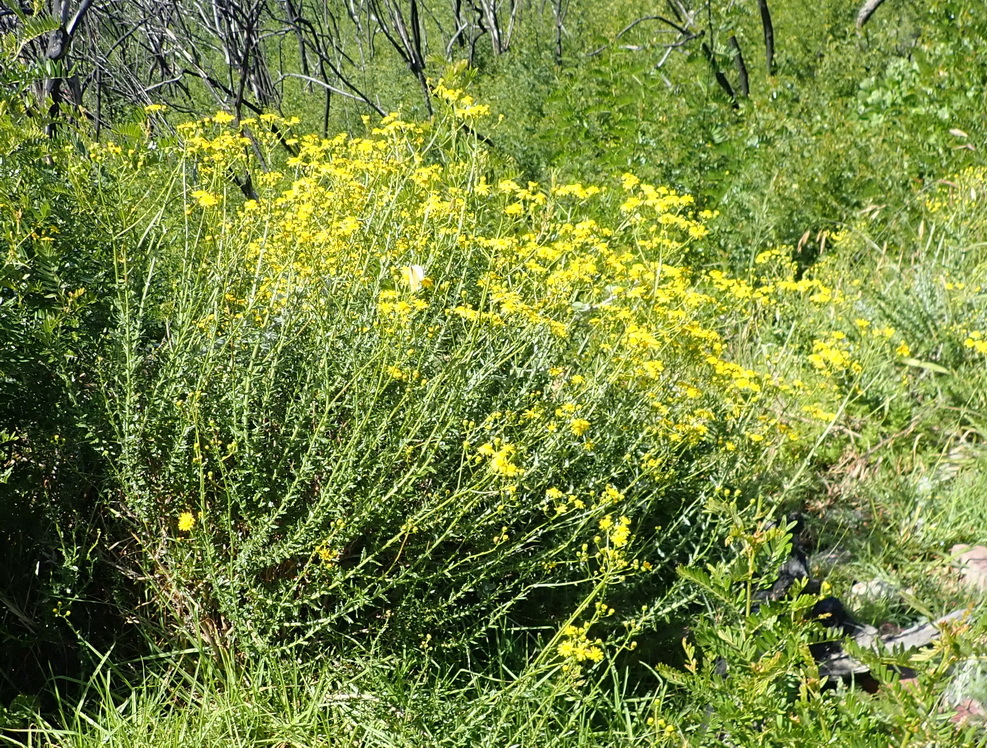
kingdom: Plantae
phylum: Tracheophyta
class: Magnoliopsida
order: Asterales
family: Asteraceae
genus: Senecio
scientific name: Senecio ilicifolius
